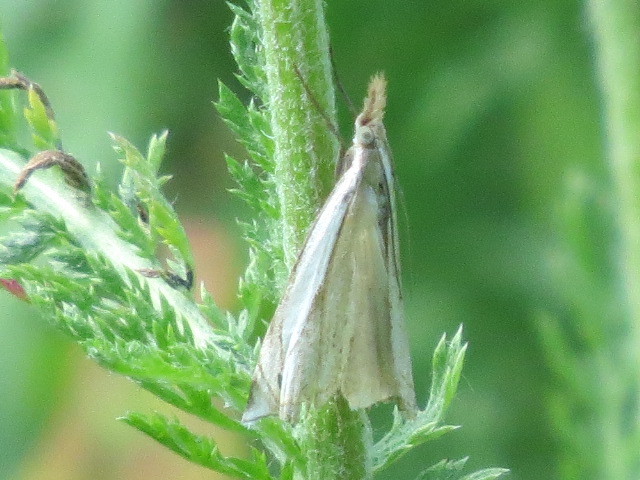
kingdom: Animalia
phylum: Arthropoda
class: Insecta
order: Lepidoptera
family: Crambidae
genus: Crambus
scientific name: Crambus pascuella
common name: Inlaid grass-veneer
